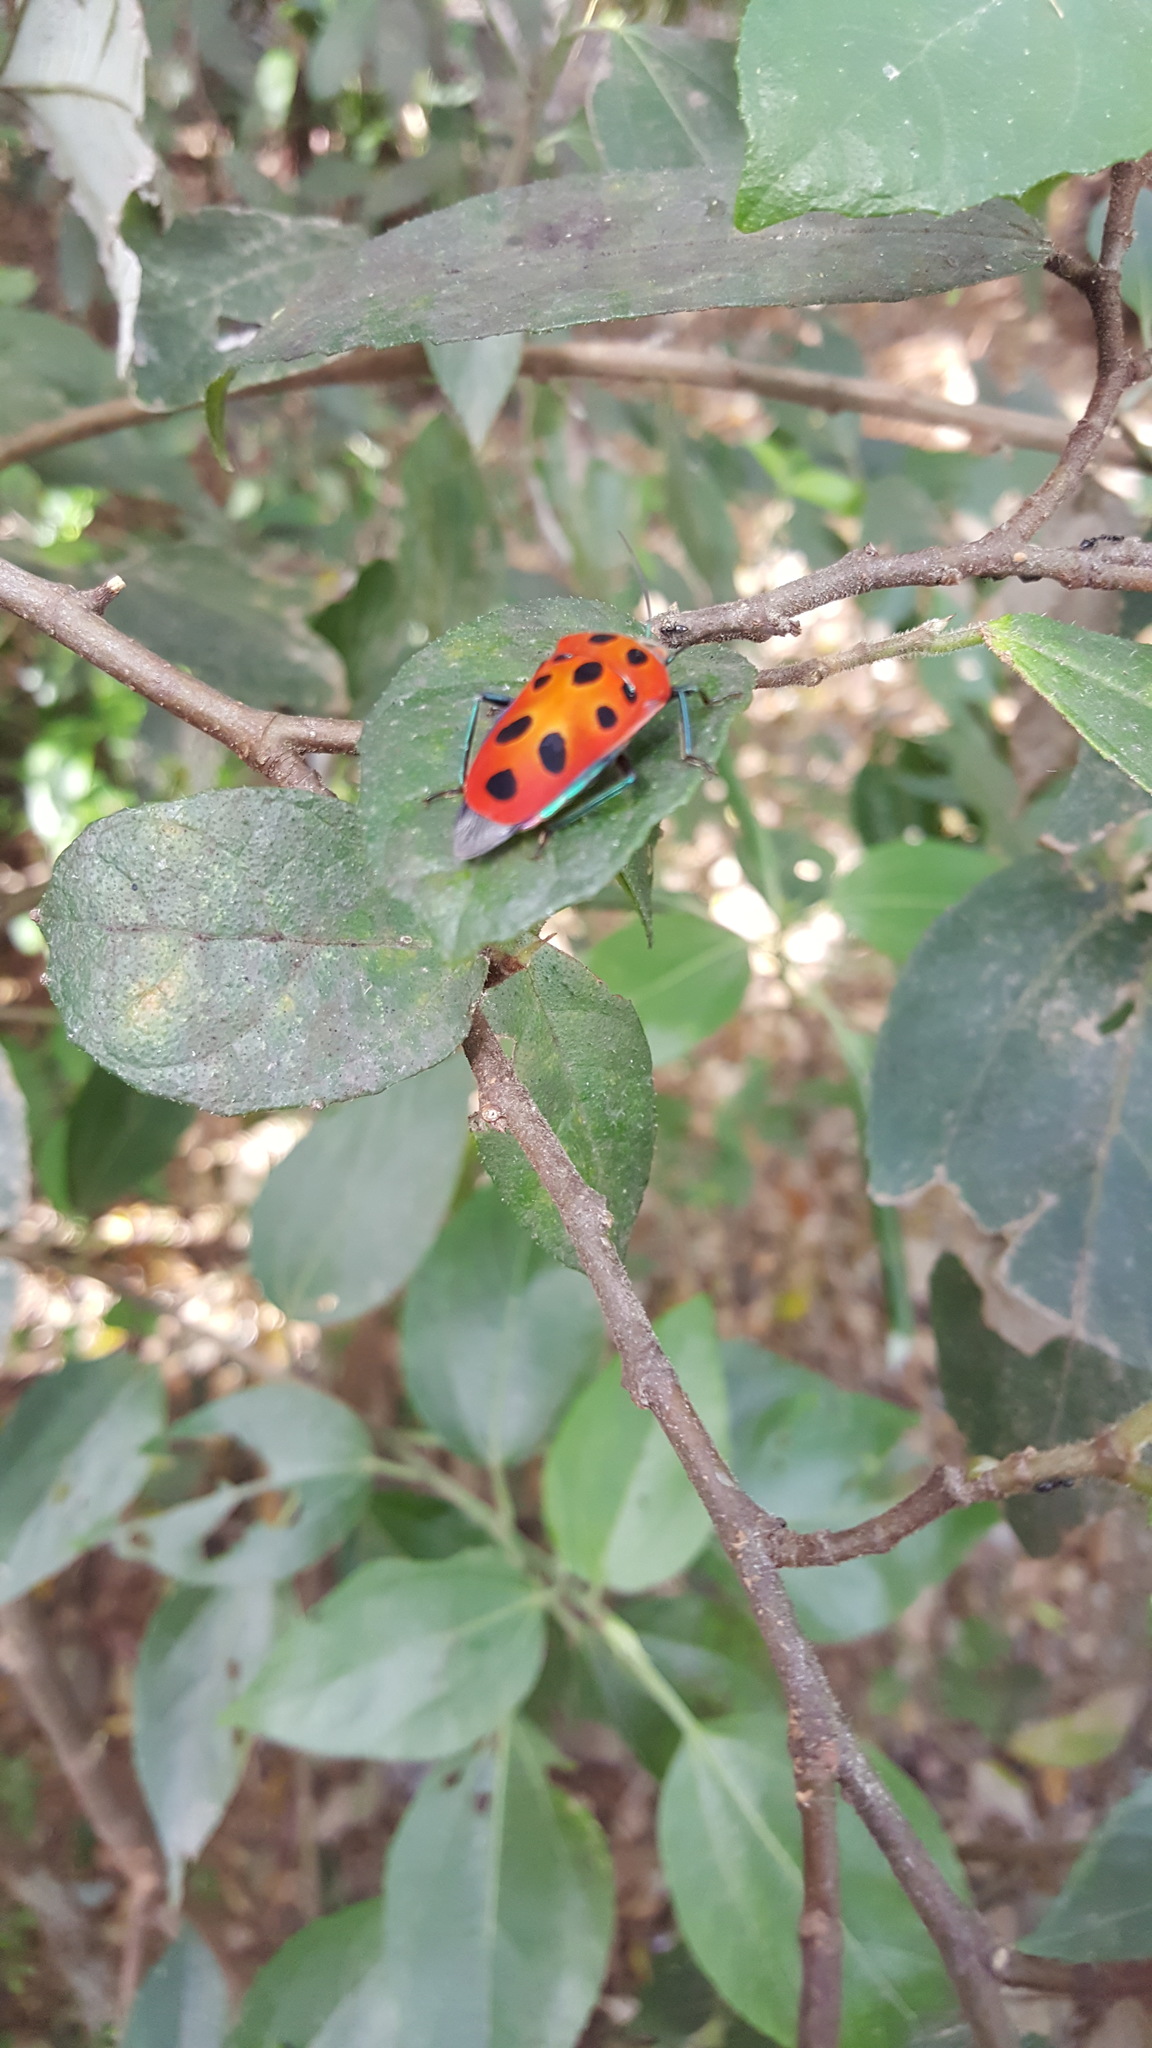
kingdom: Animalia
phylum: Arthropoda
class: Insecta
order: Hemiptera
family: Scutelleridae
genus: Cantao
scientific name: Cantao
